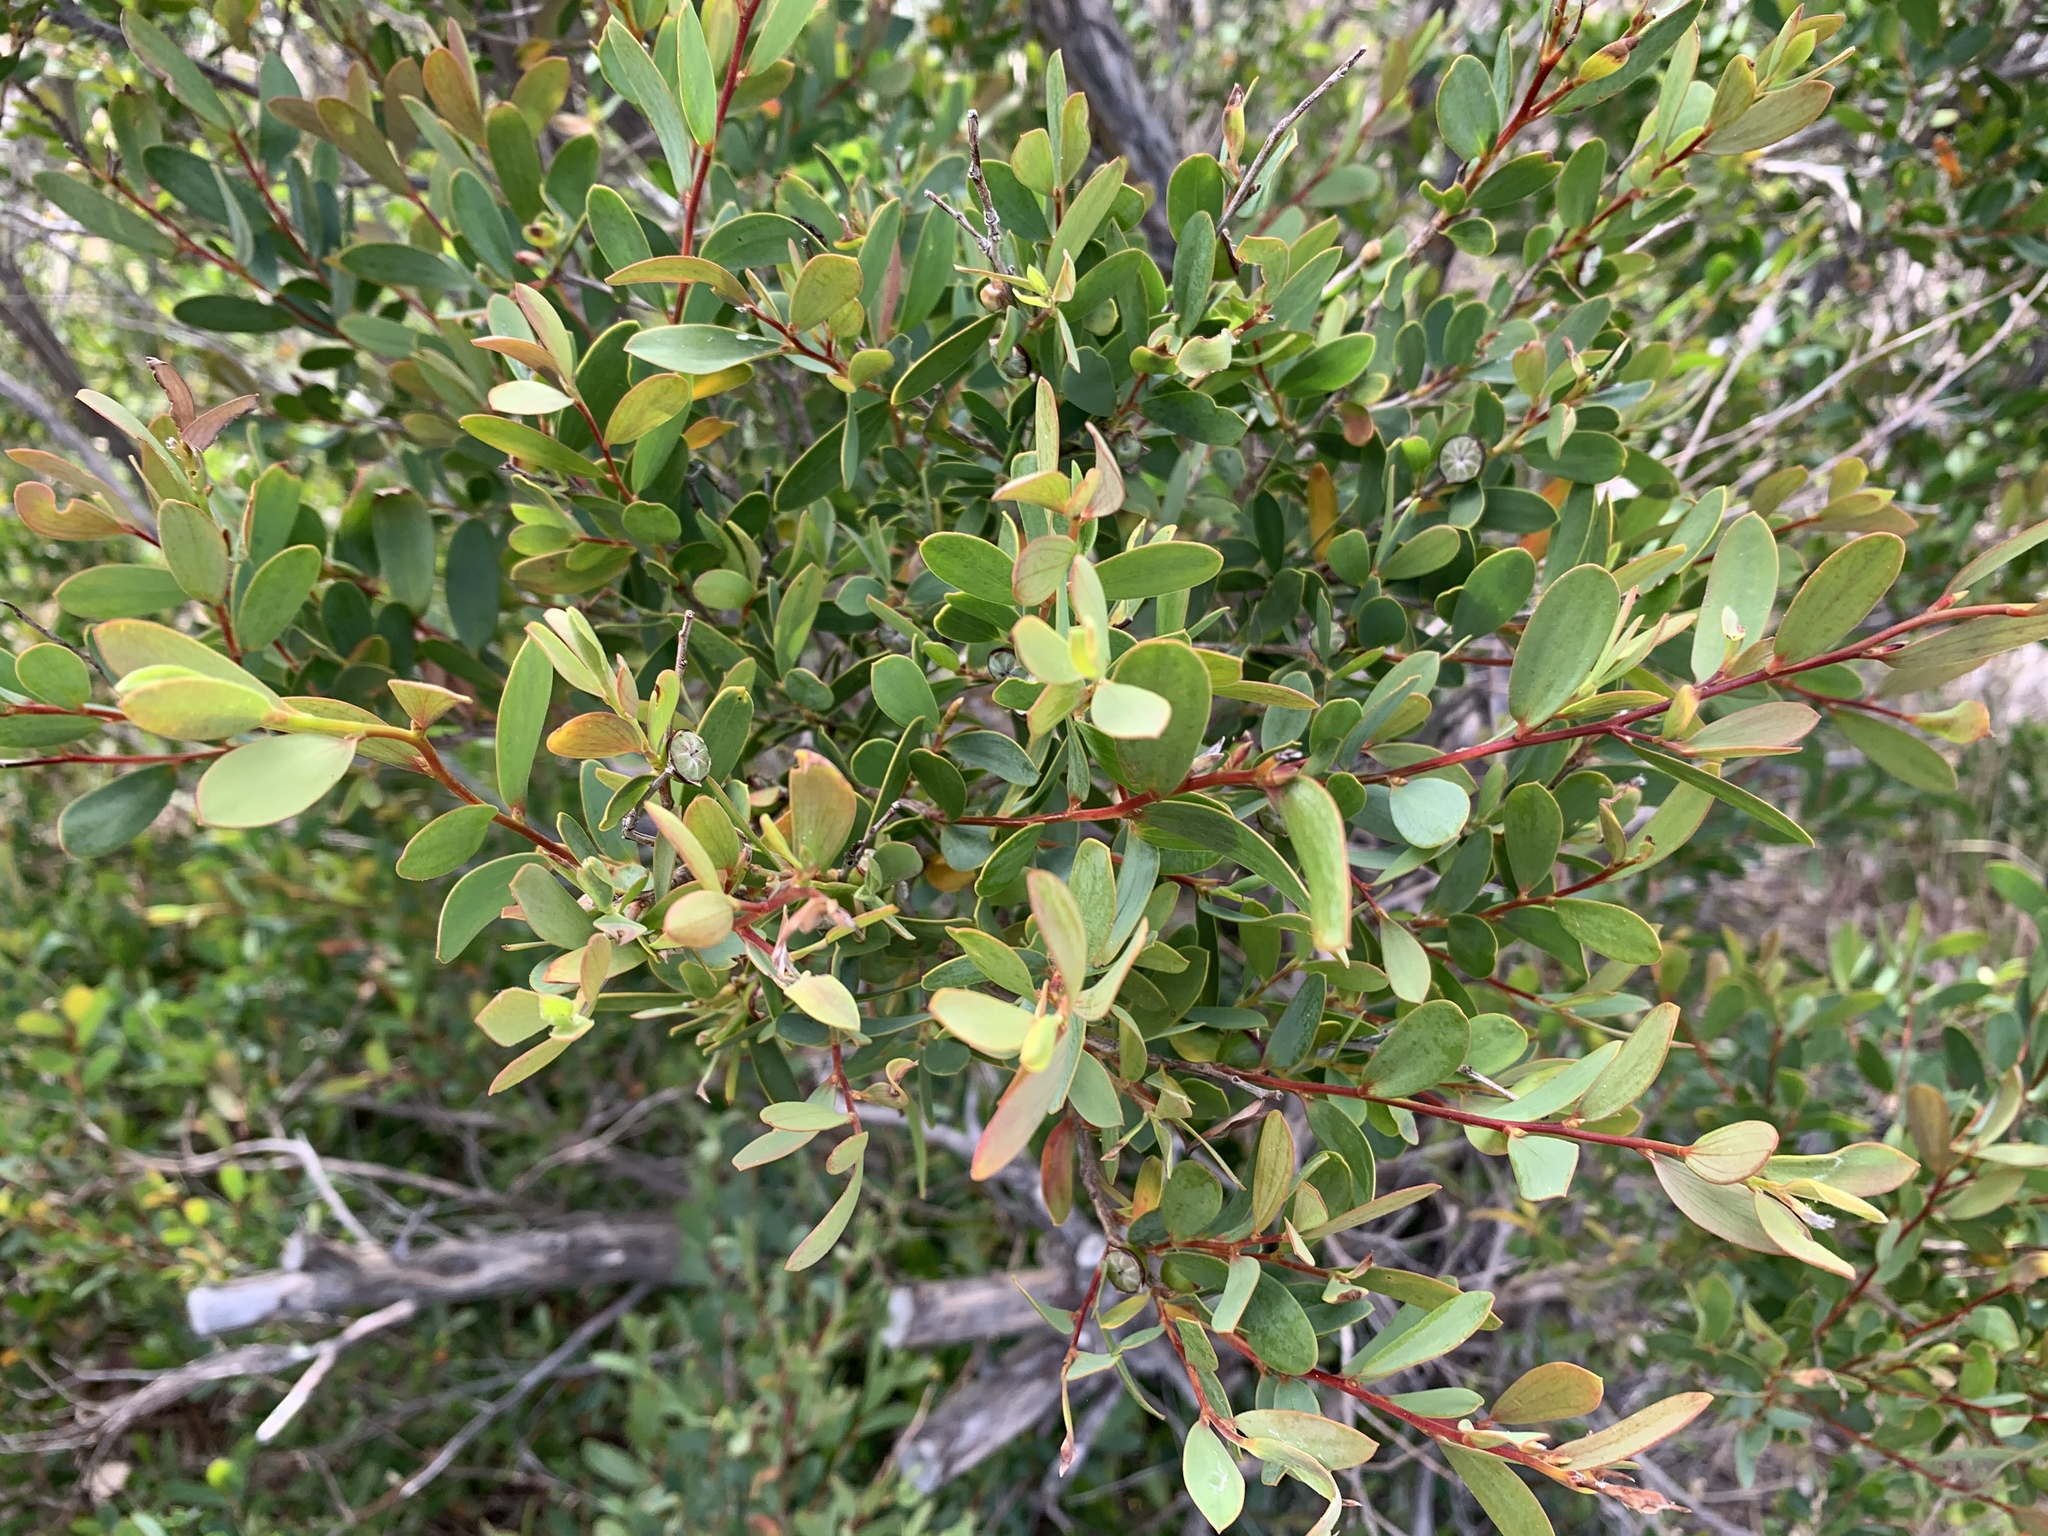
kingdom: Plantae
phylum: Tracheophyta
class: Magnoliopsida
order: Myrtales
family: Myrtaceae
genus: Leptospermum
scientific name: Leptospermum laevigatum
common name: Australian teatree
